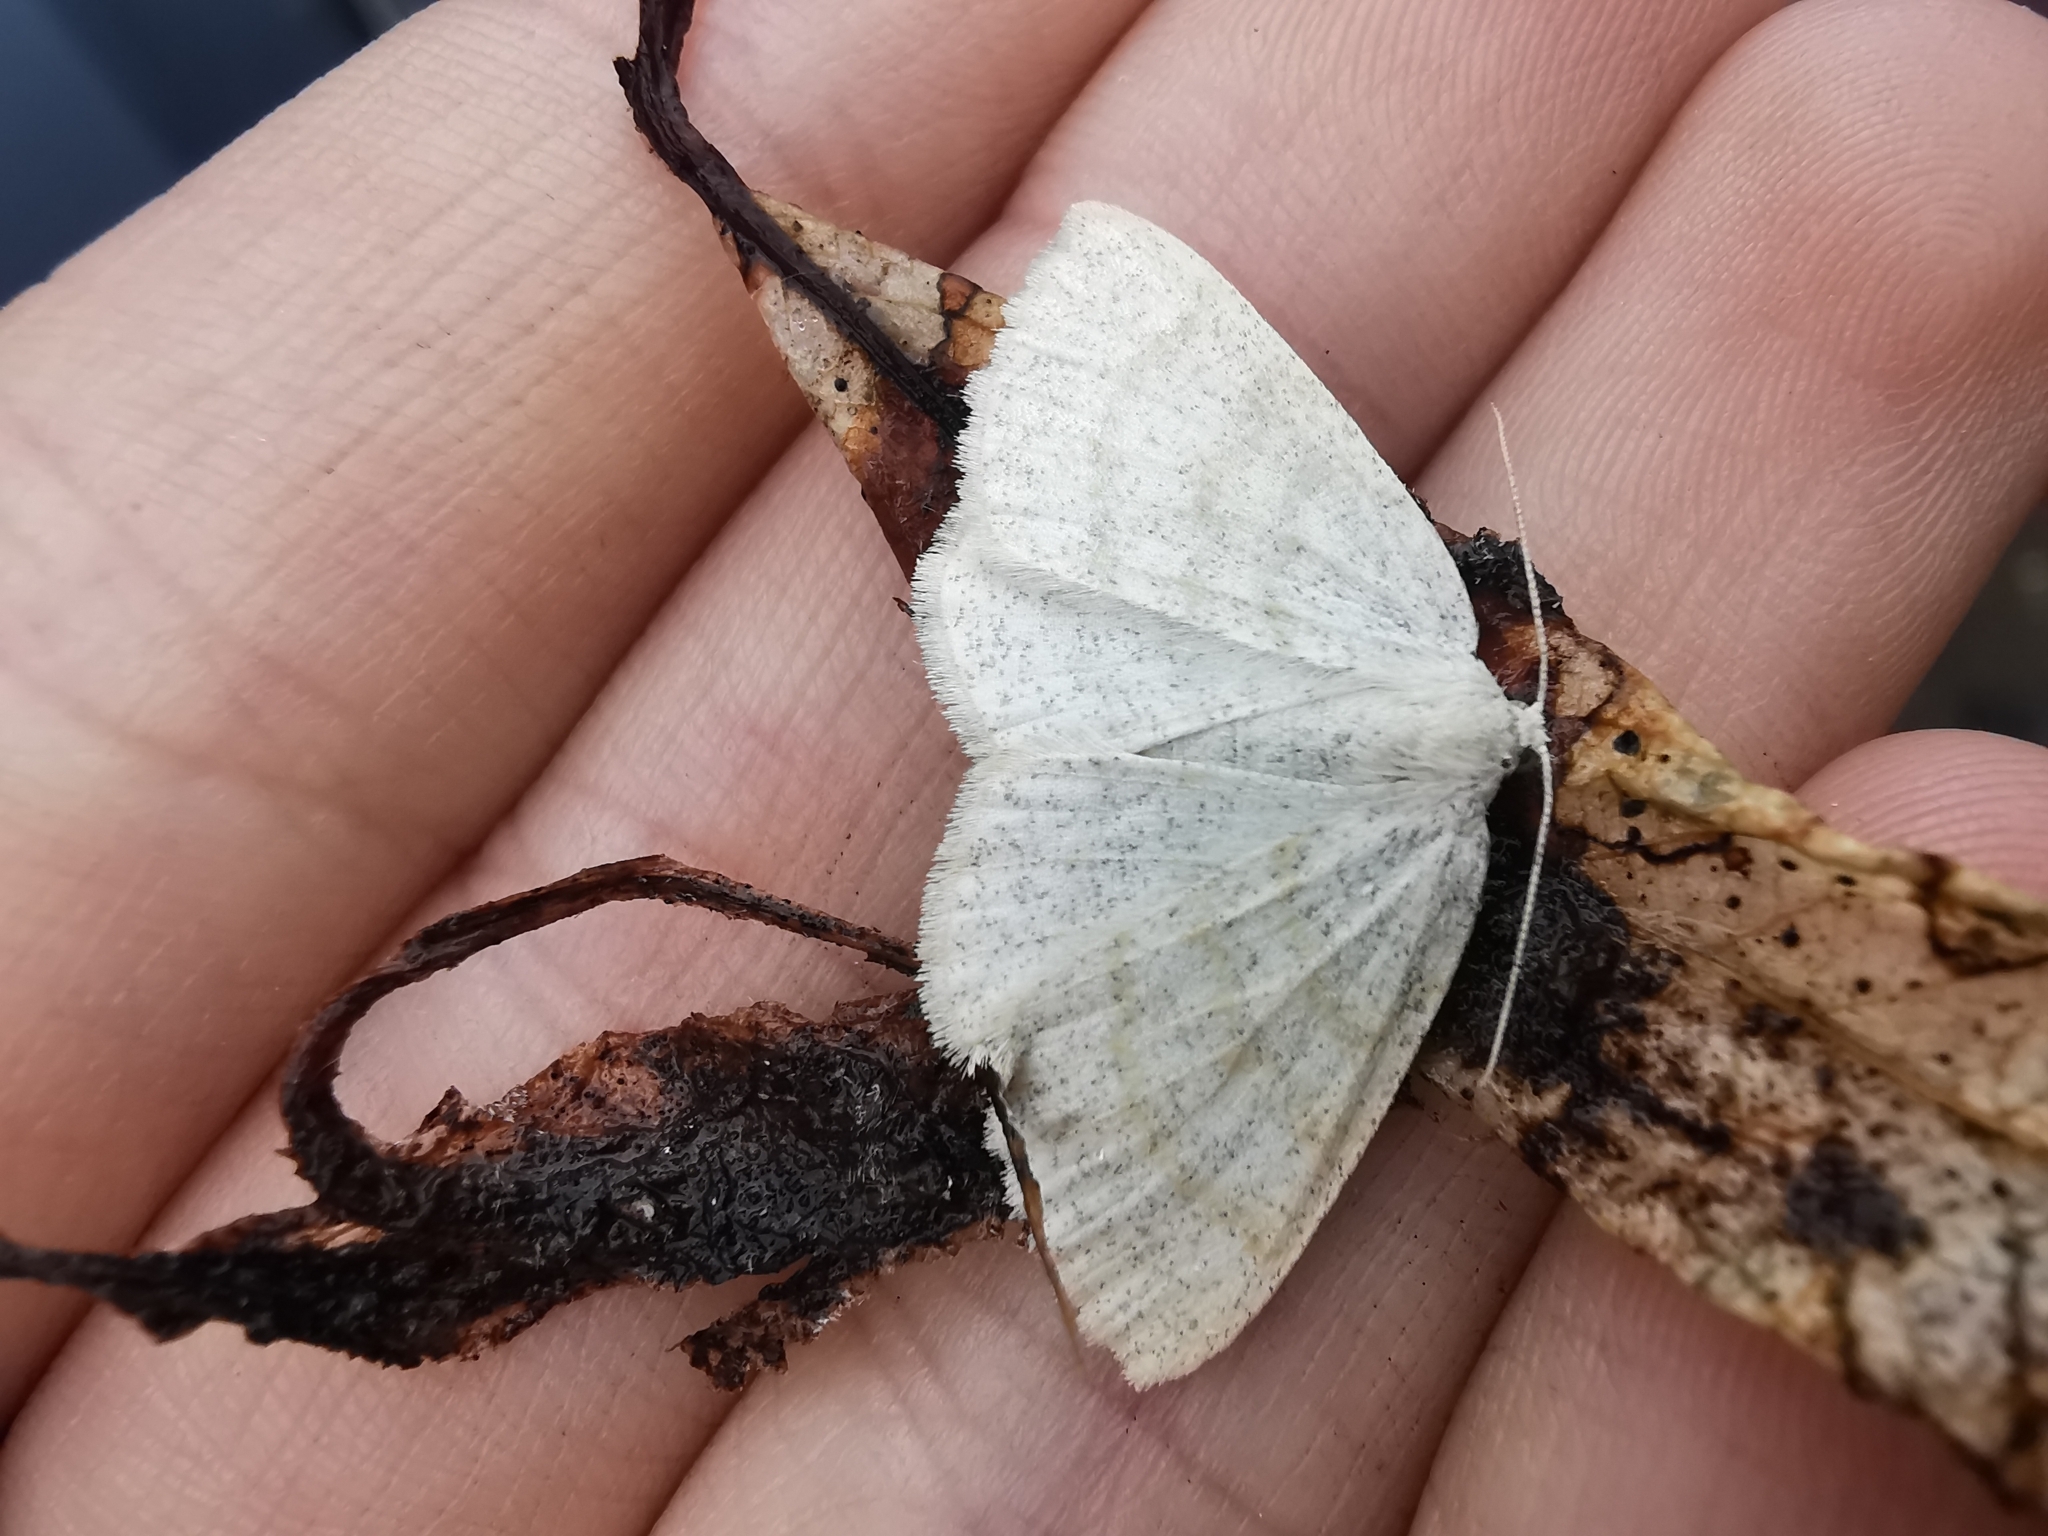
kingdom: Animalia
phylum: Arthropoda
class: Insecta
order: Lepidoptera
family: Geometridae
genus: Cabera
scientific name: Cabera exanthemata
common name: Common wave
